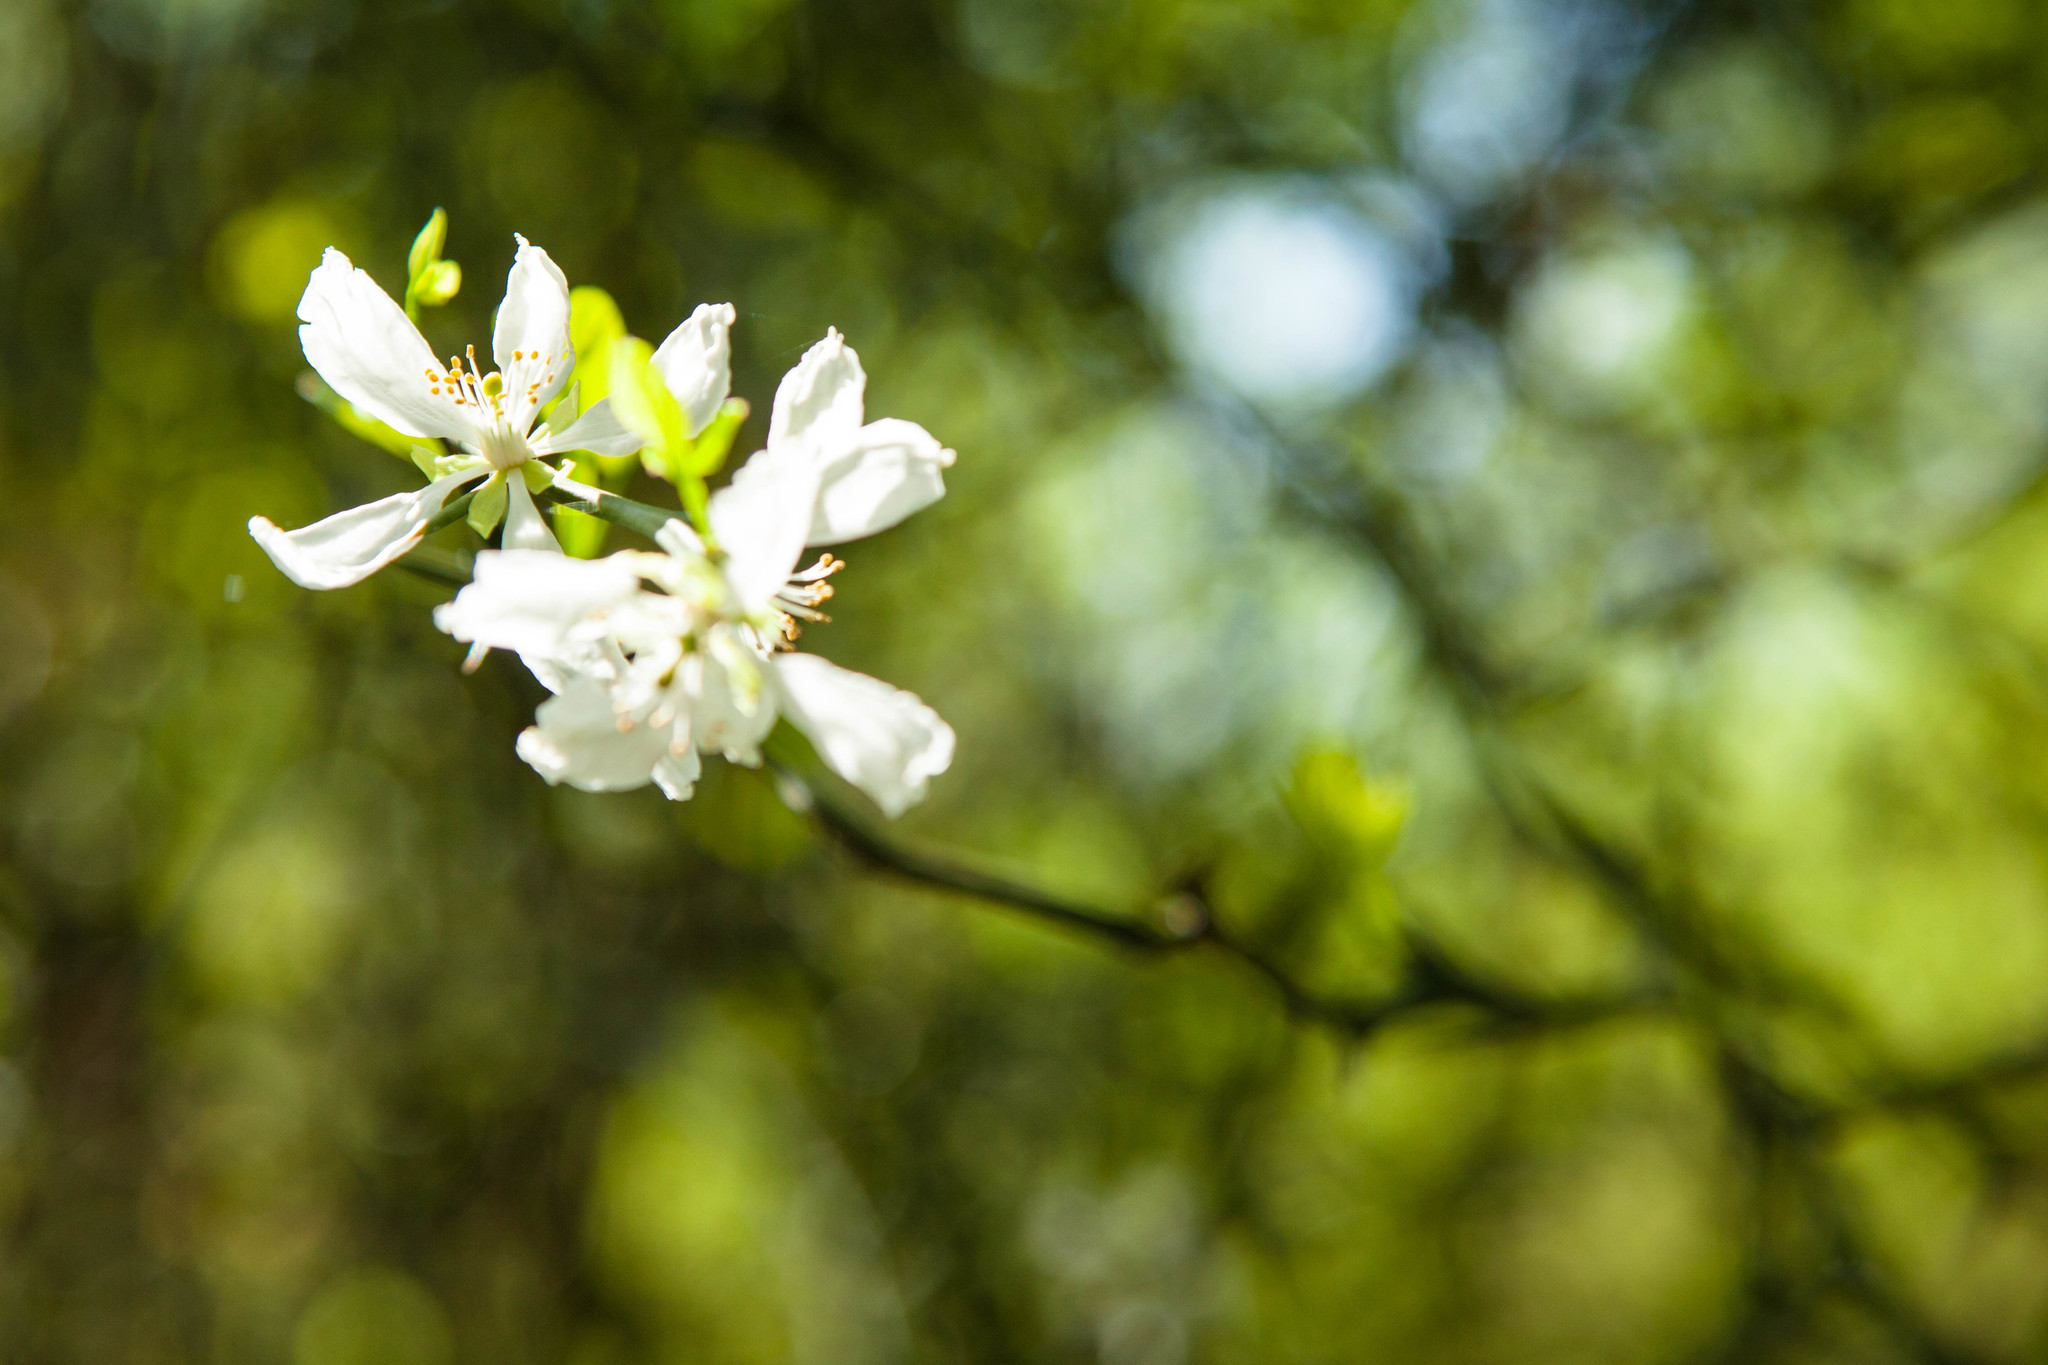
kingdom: Plantae
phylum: Tracheophyta
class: Magnoliopsida
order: Sapindales
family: Rutaceae
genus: Citrus
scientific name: Citrus trifoliata
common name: Japanese bitter-orange
